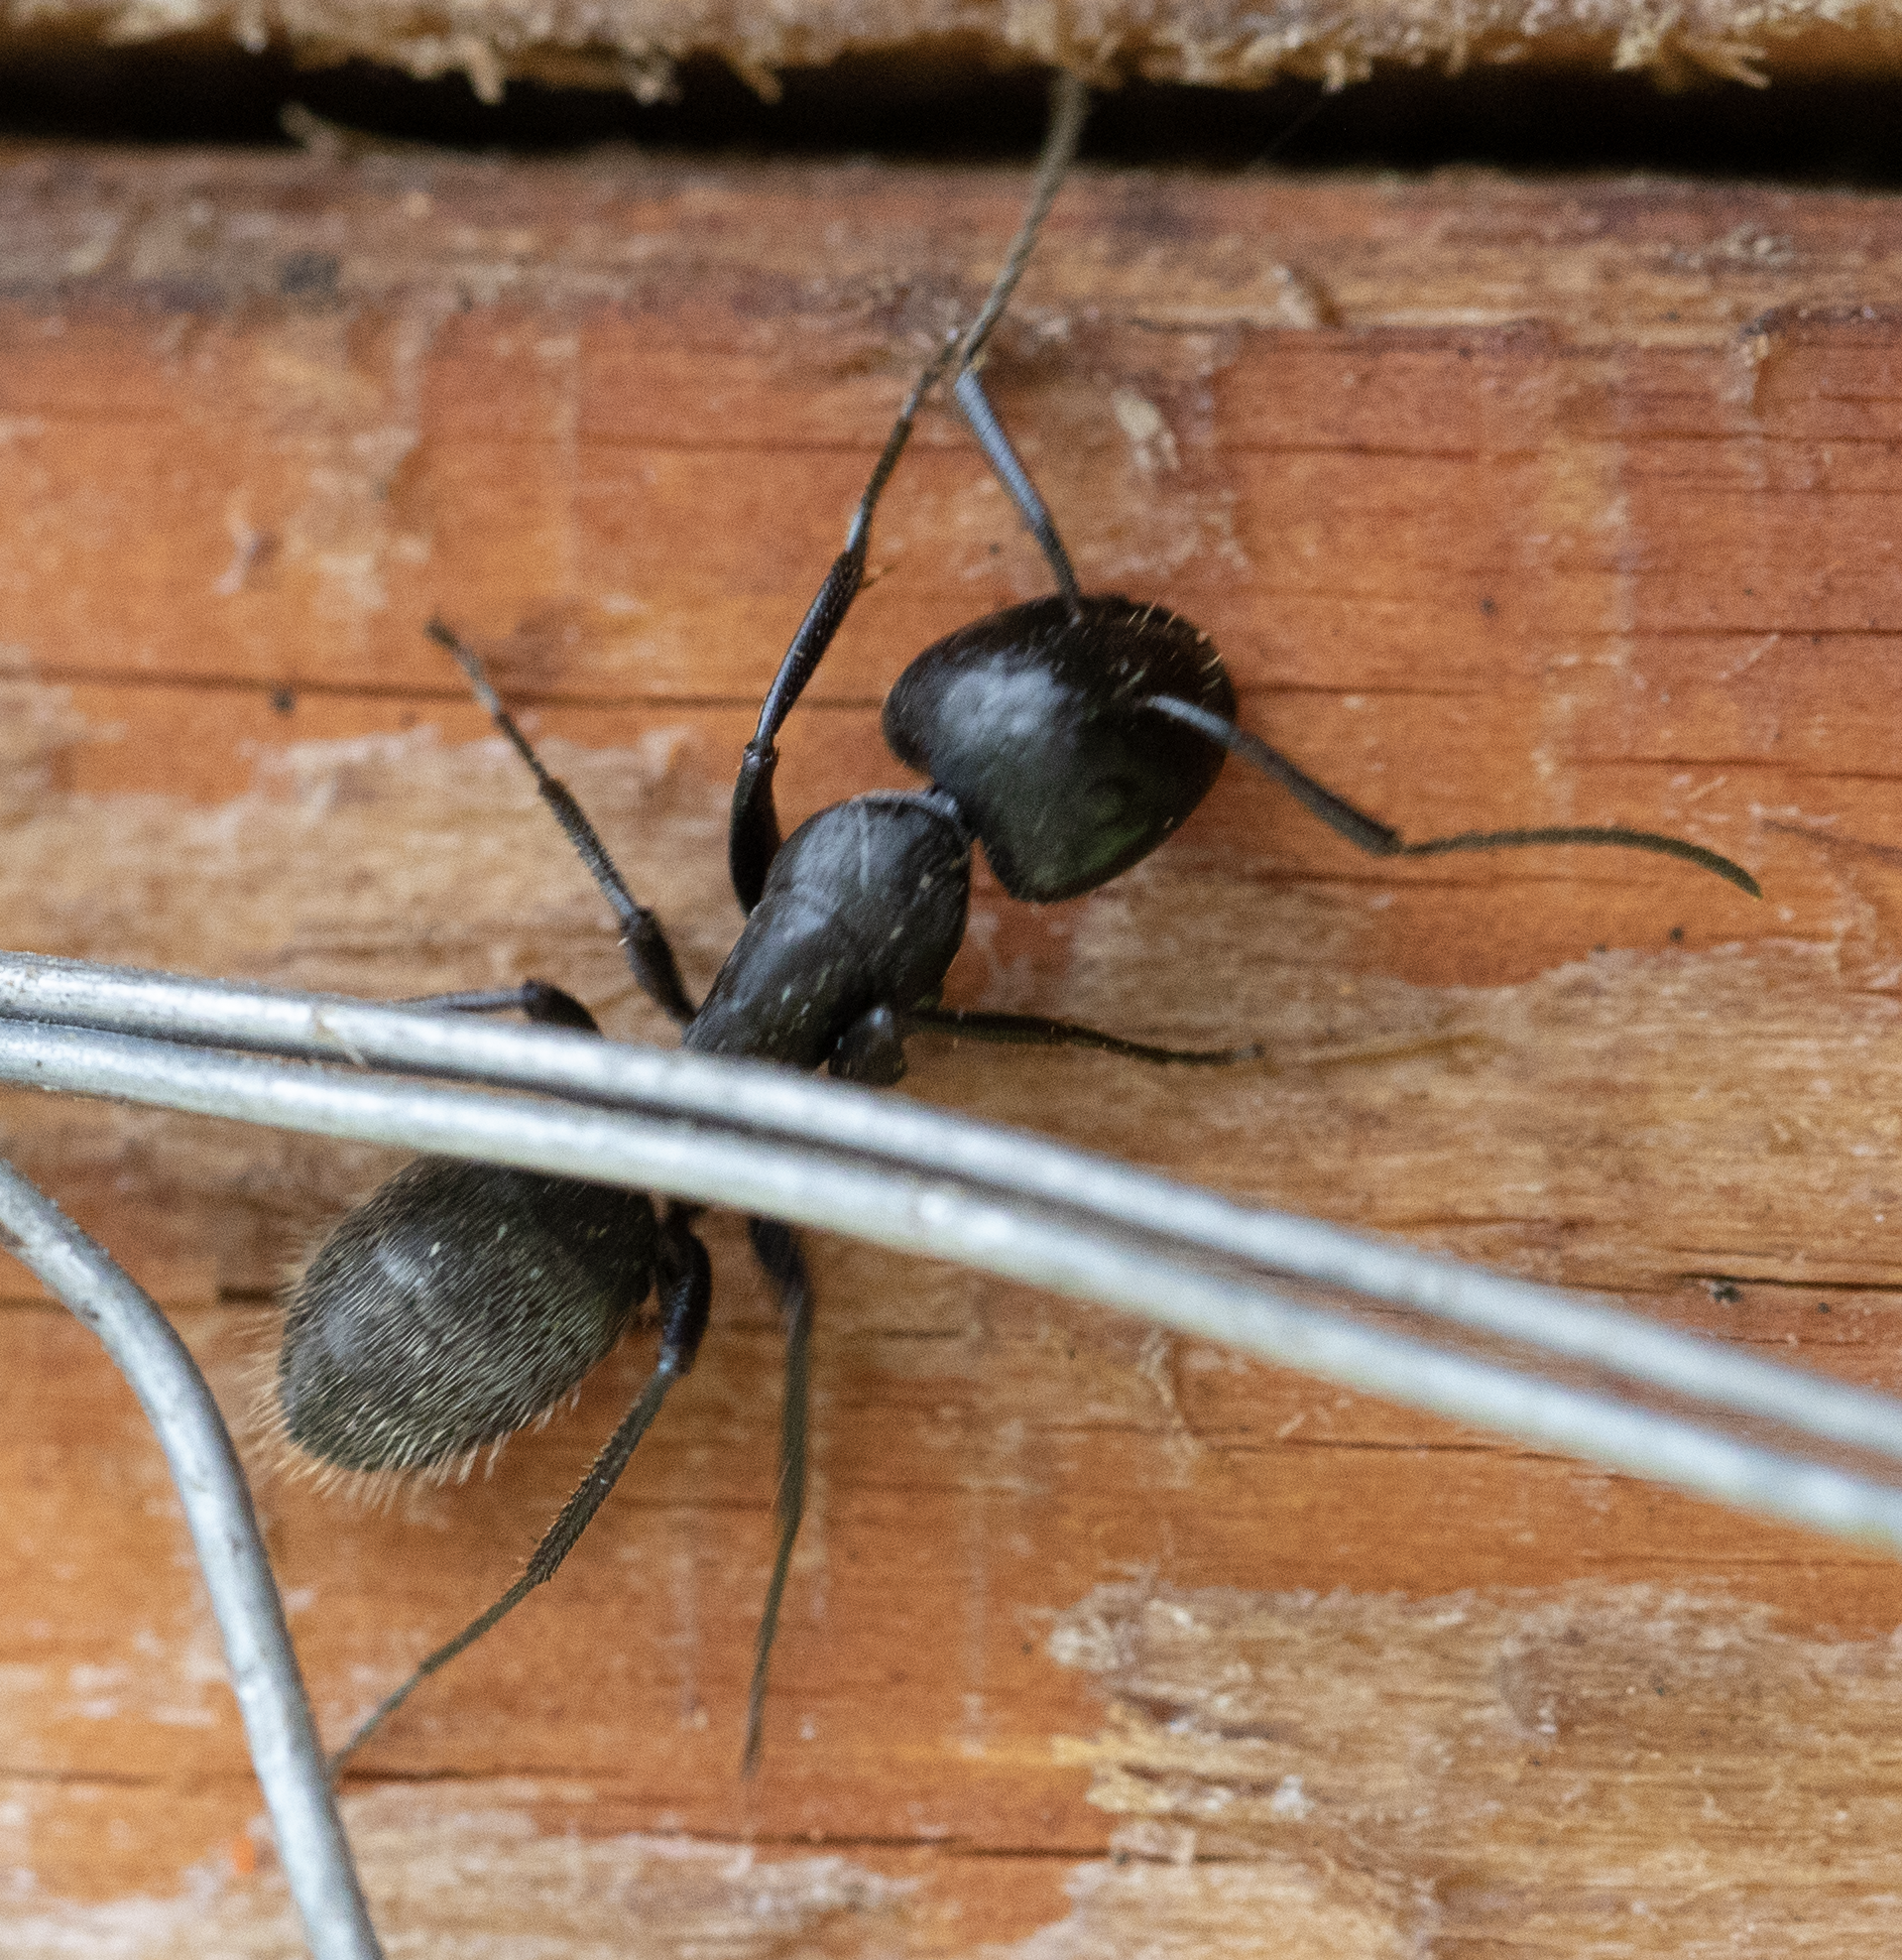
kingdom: Animalia
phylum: Arthropoda
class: Insecta
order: Hymenoptera
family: Formicidae
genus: Camponotus
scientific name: Camponotus vagus
